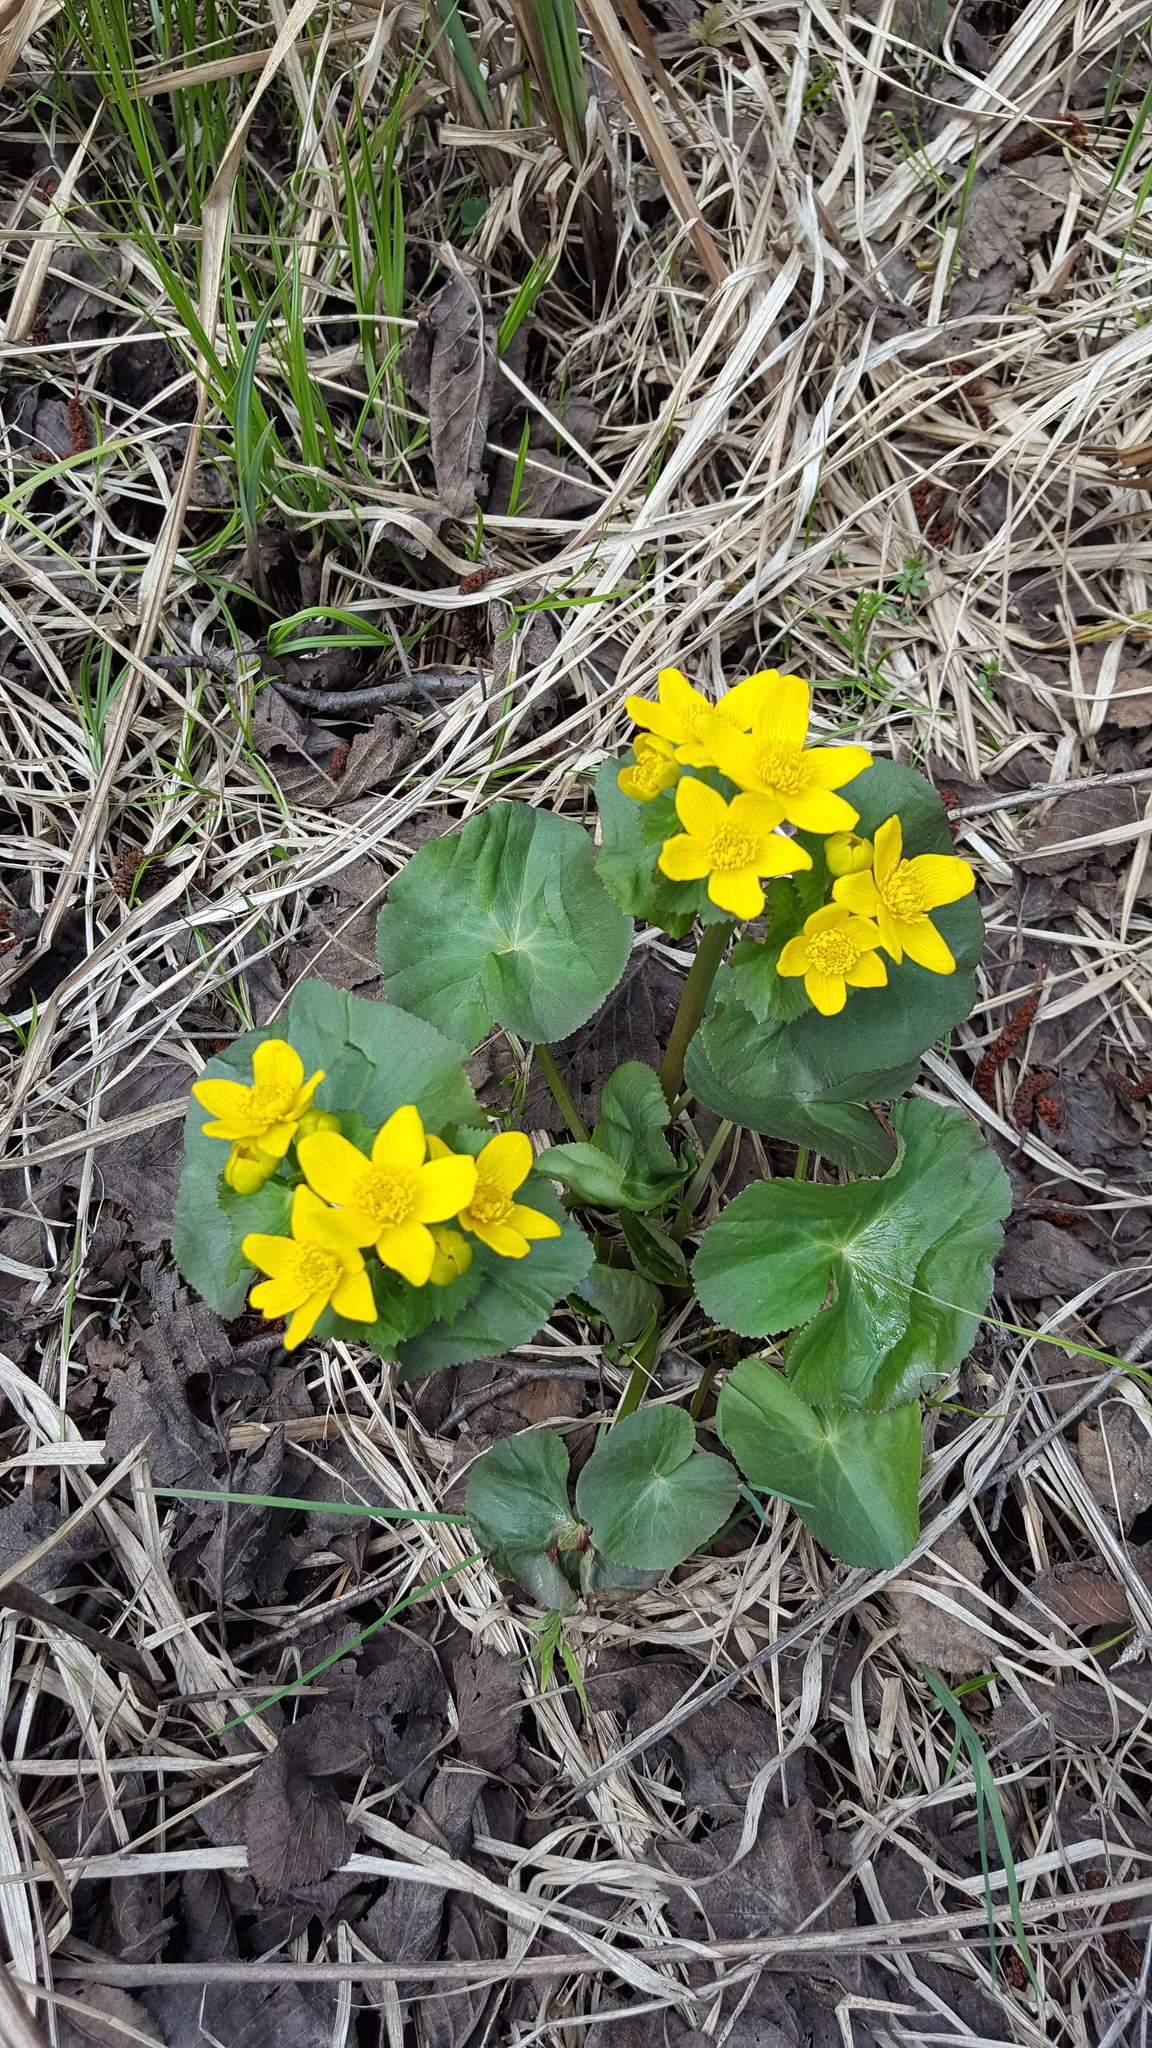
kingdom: Plantae
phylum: Tracheophyta
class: Magnoliopsida
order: Ranunculales
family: Ranunculaceae
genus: Caltha
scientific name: Caltha palustris
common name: Marsh marigold
